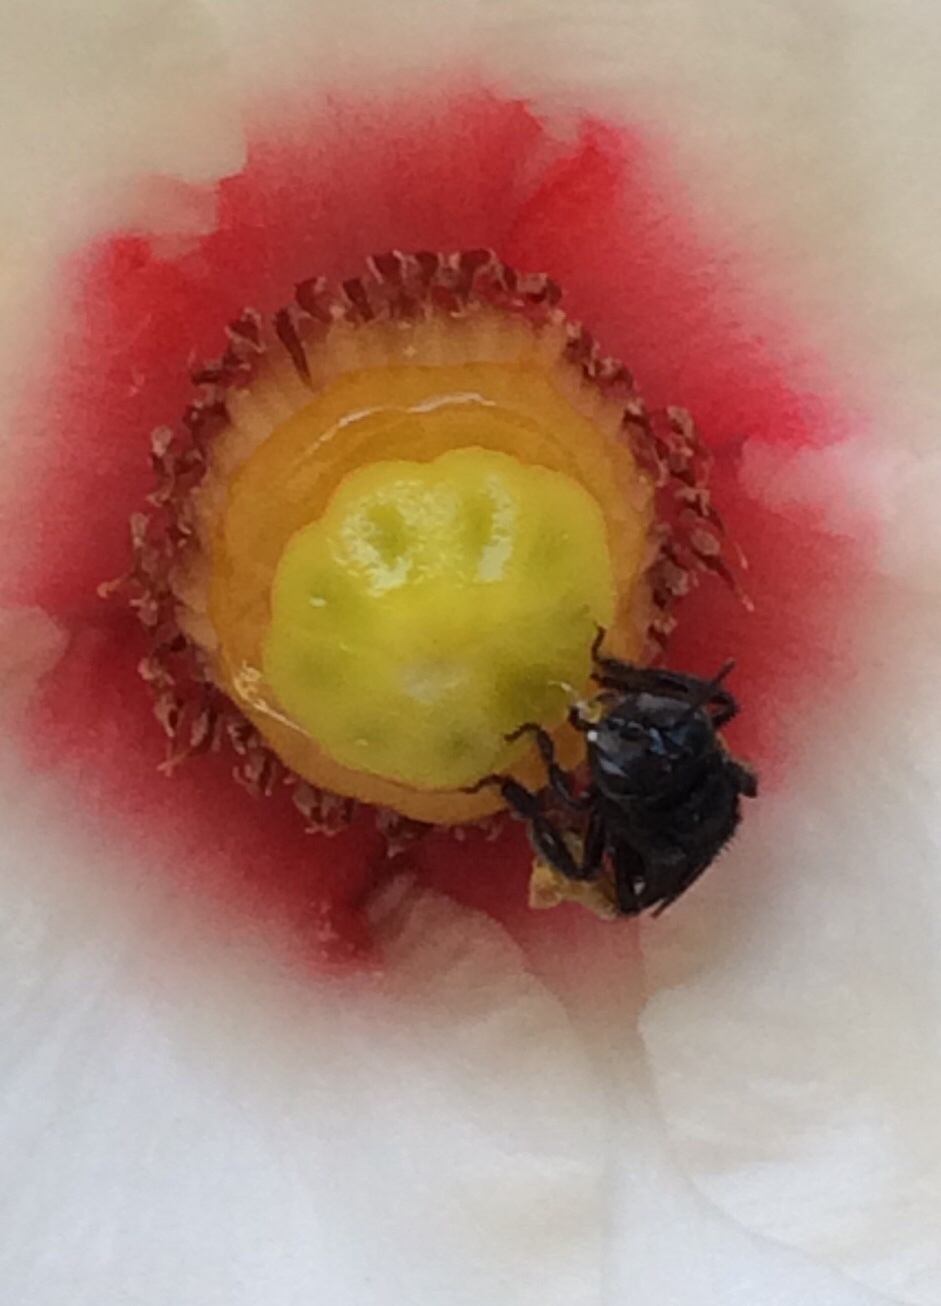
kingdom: Animalia
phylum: Arthropoda
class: Insecta
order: Hymenoptera
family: Apidae
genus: Trigona
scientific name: Trigona spinipes
